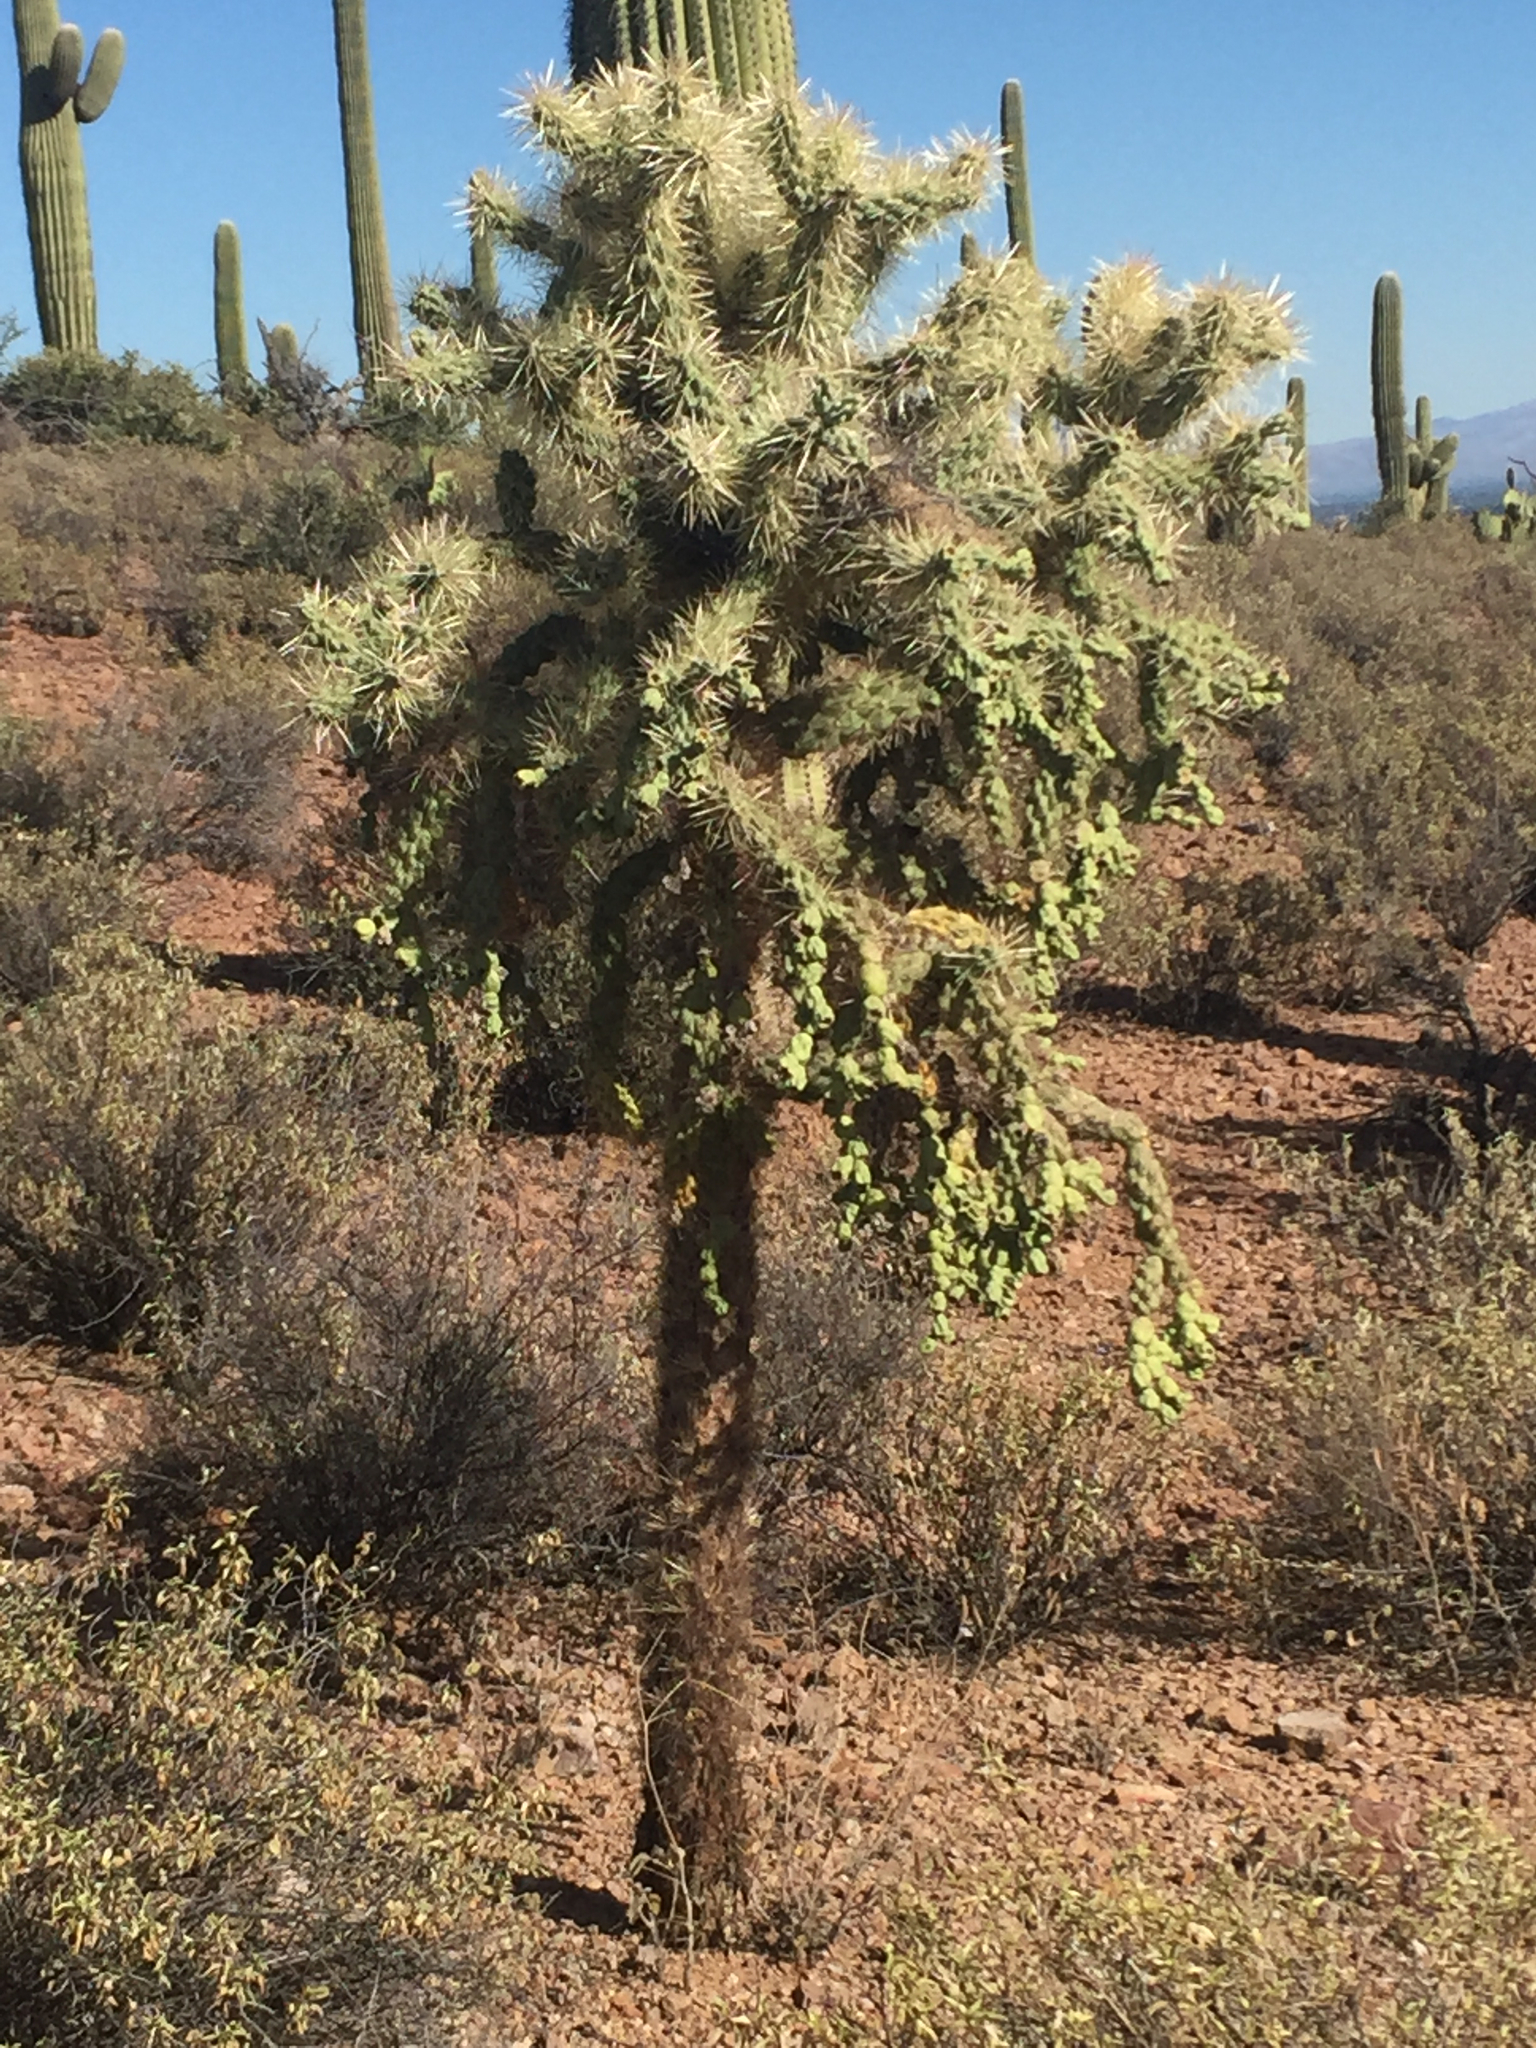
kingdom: Plantae
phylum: Tracheophyta
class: Magnoliopsida
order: Caryophyllales
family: Cactaceae
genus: Cylindropuntia
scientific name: Cylindropuntia fulgida
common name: Jumping cholla
